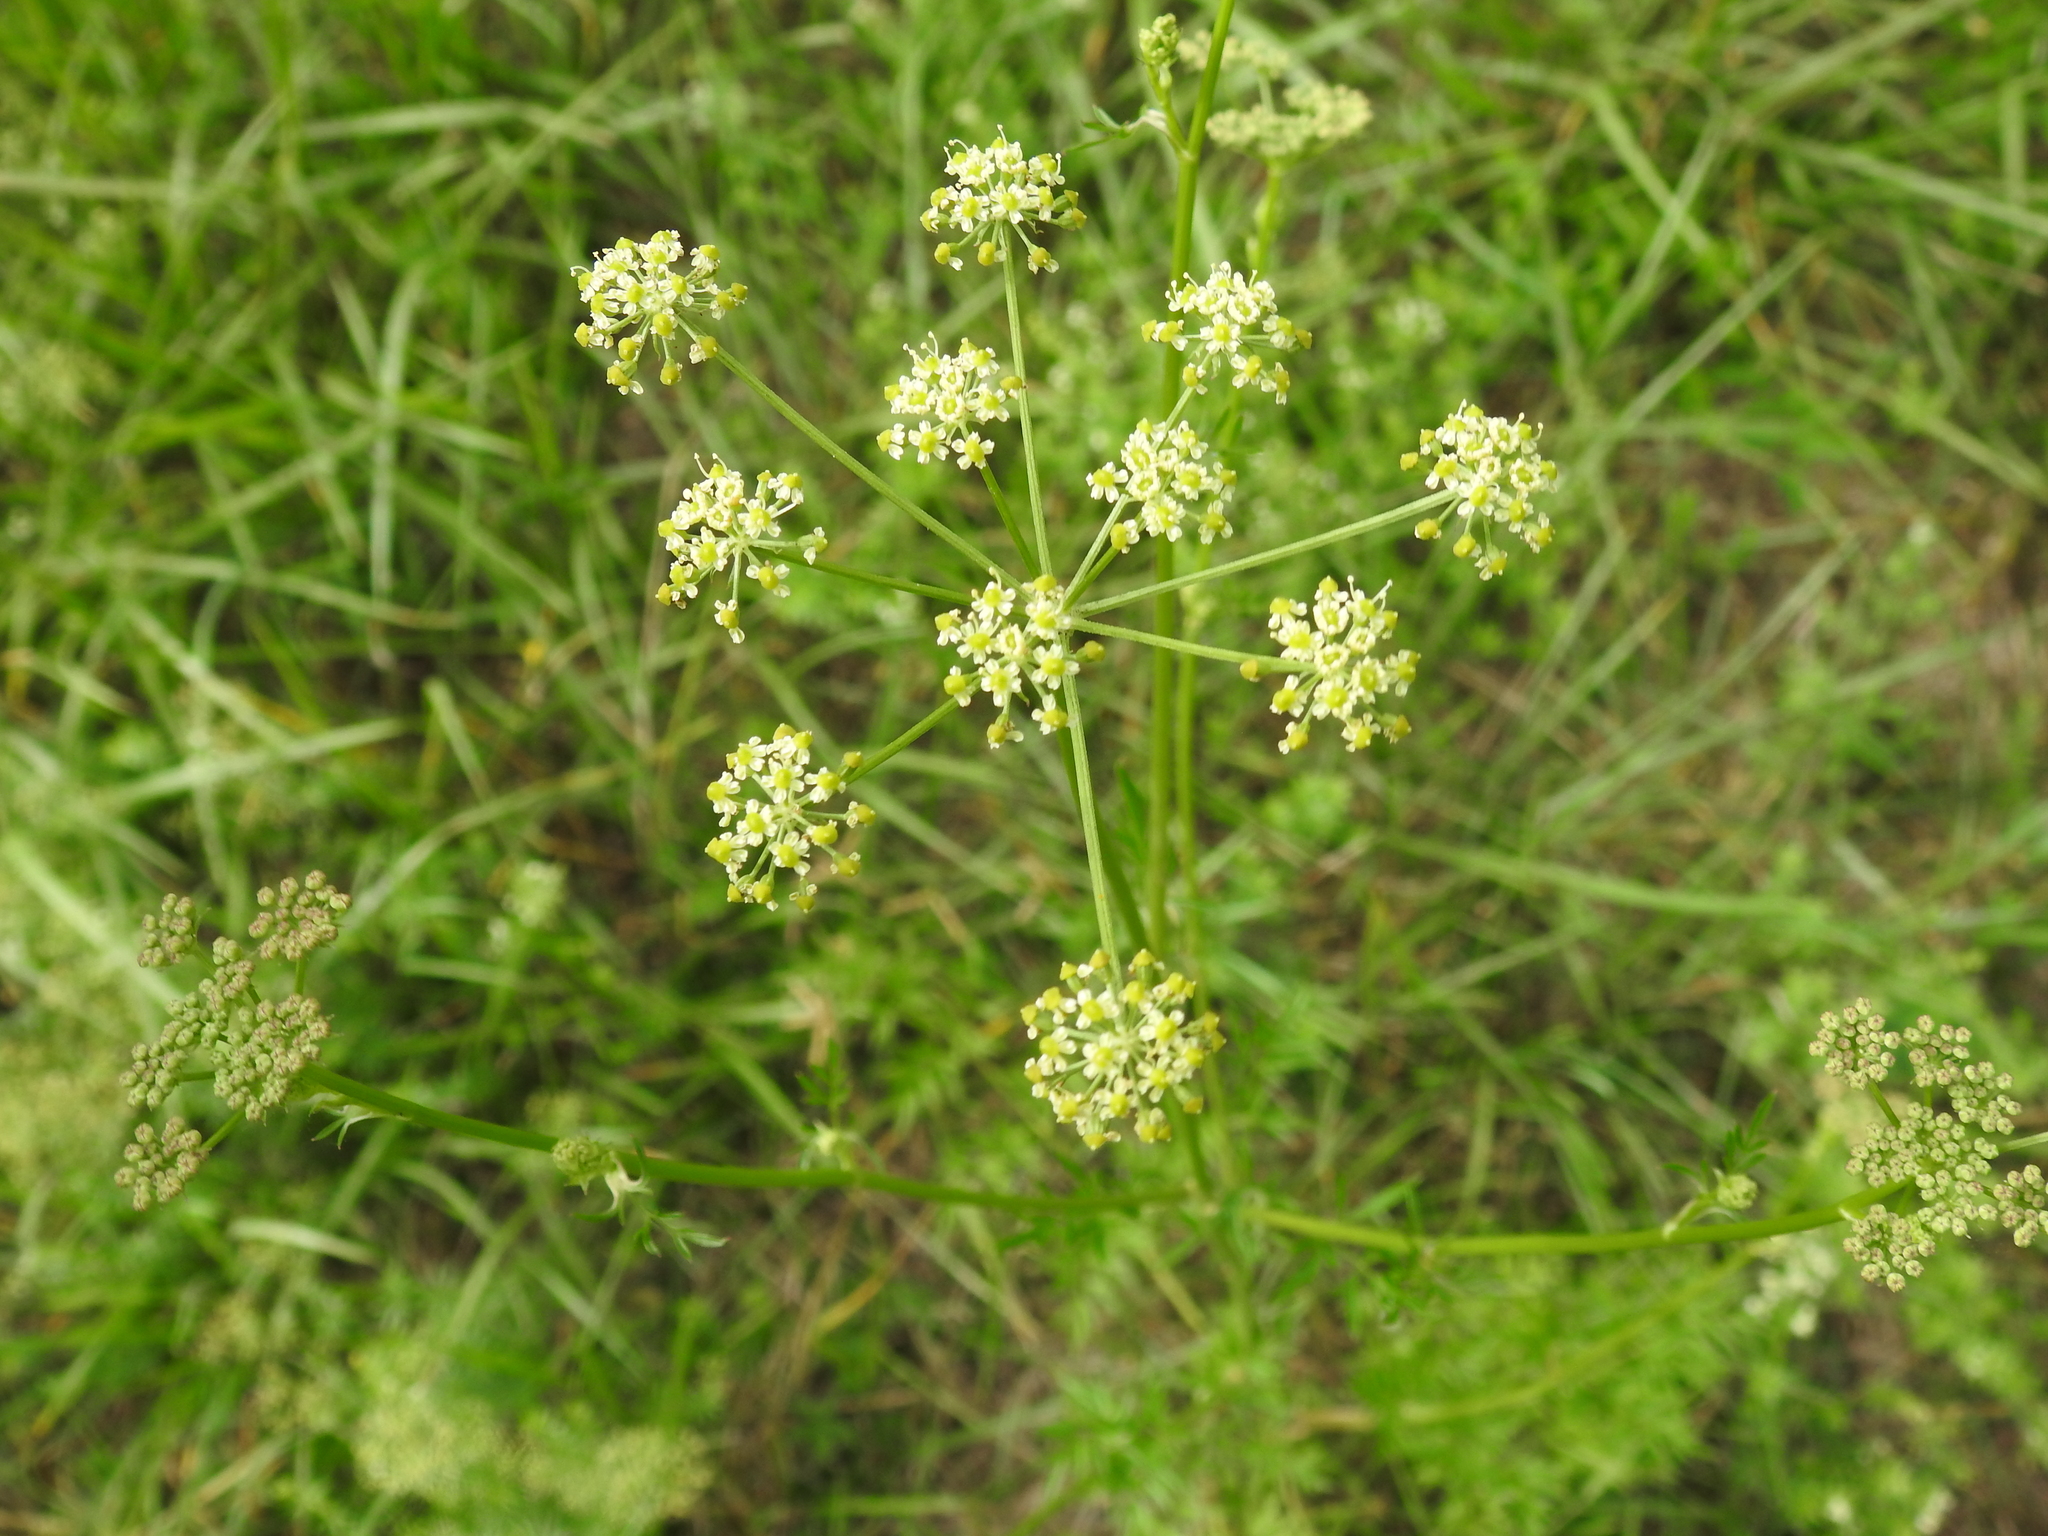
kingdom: Plantae
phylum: Tracheophyta
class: Magnoliopsida
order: Apiales
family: Apiaceae
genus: Silaum
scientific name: Silaum silaus
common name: Pepper-saxifrage
